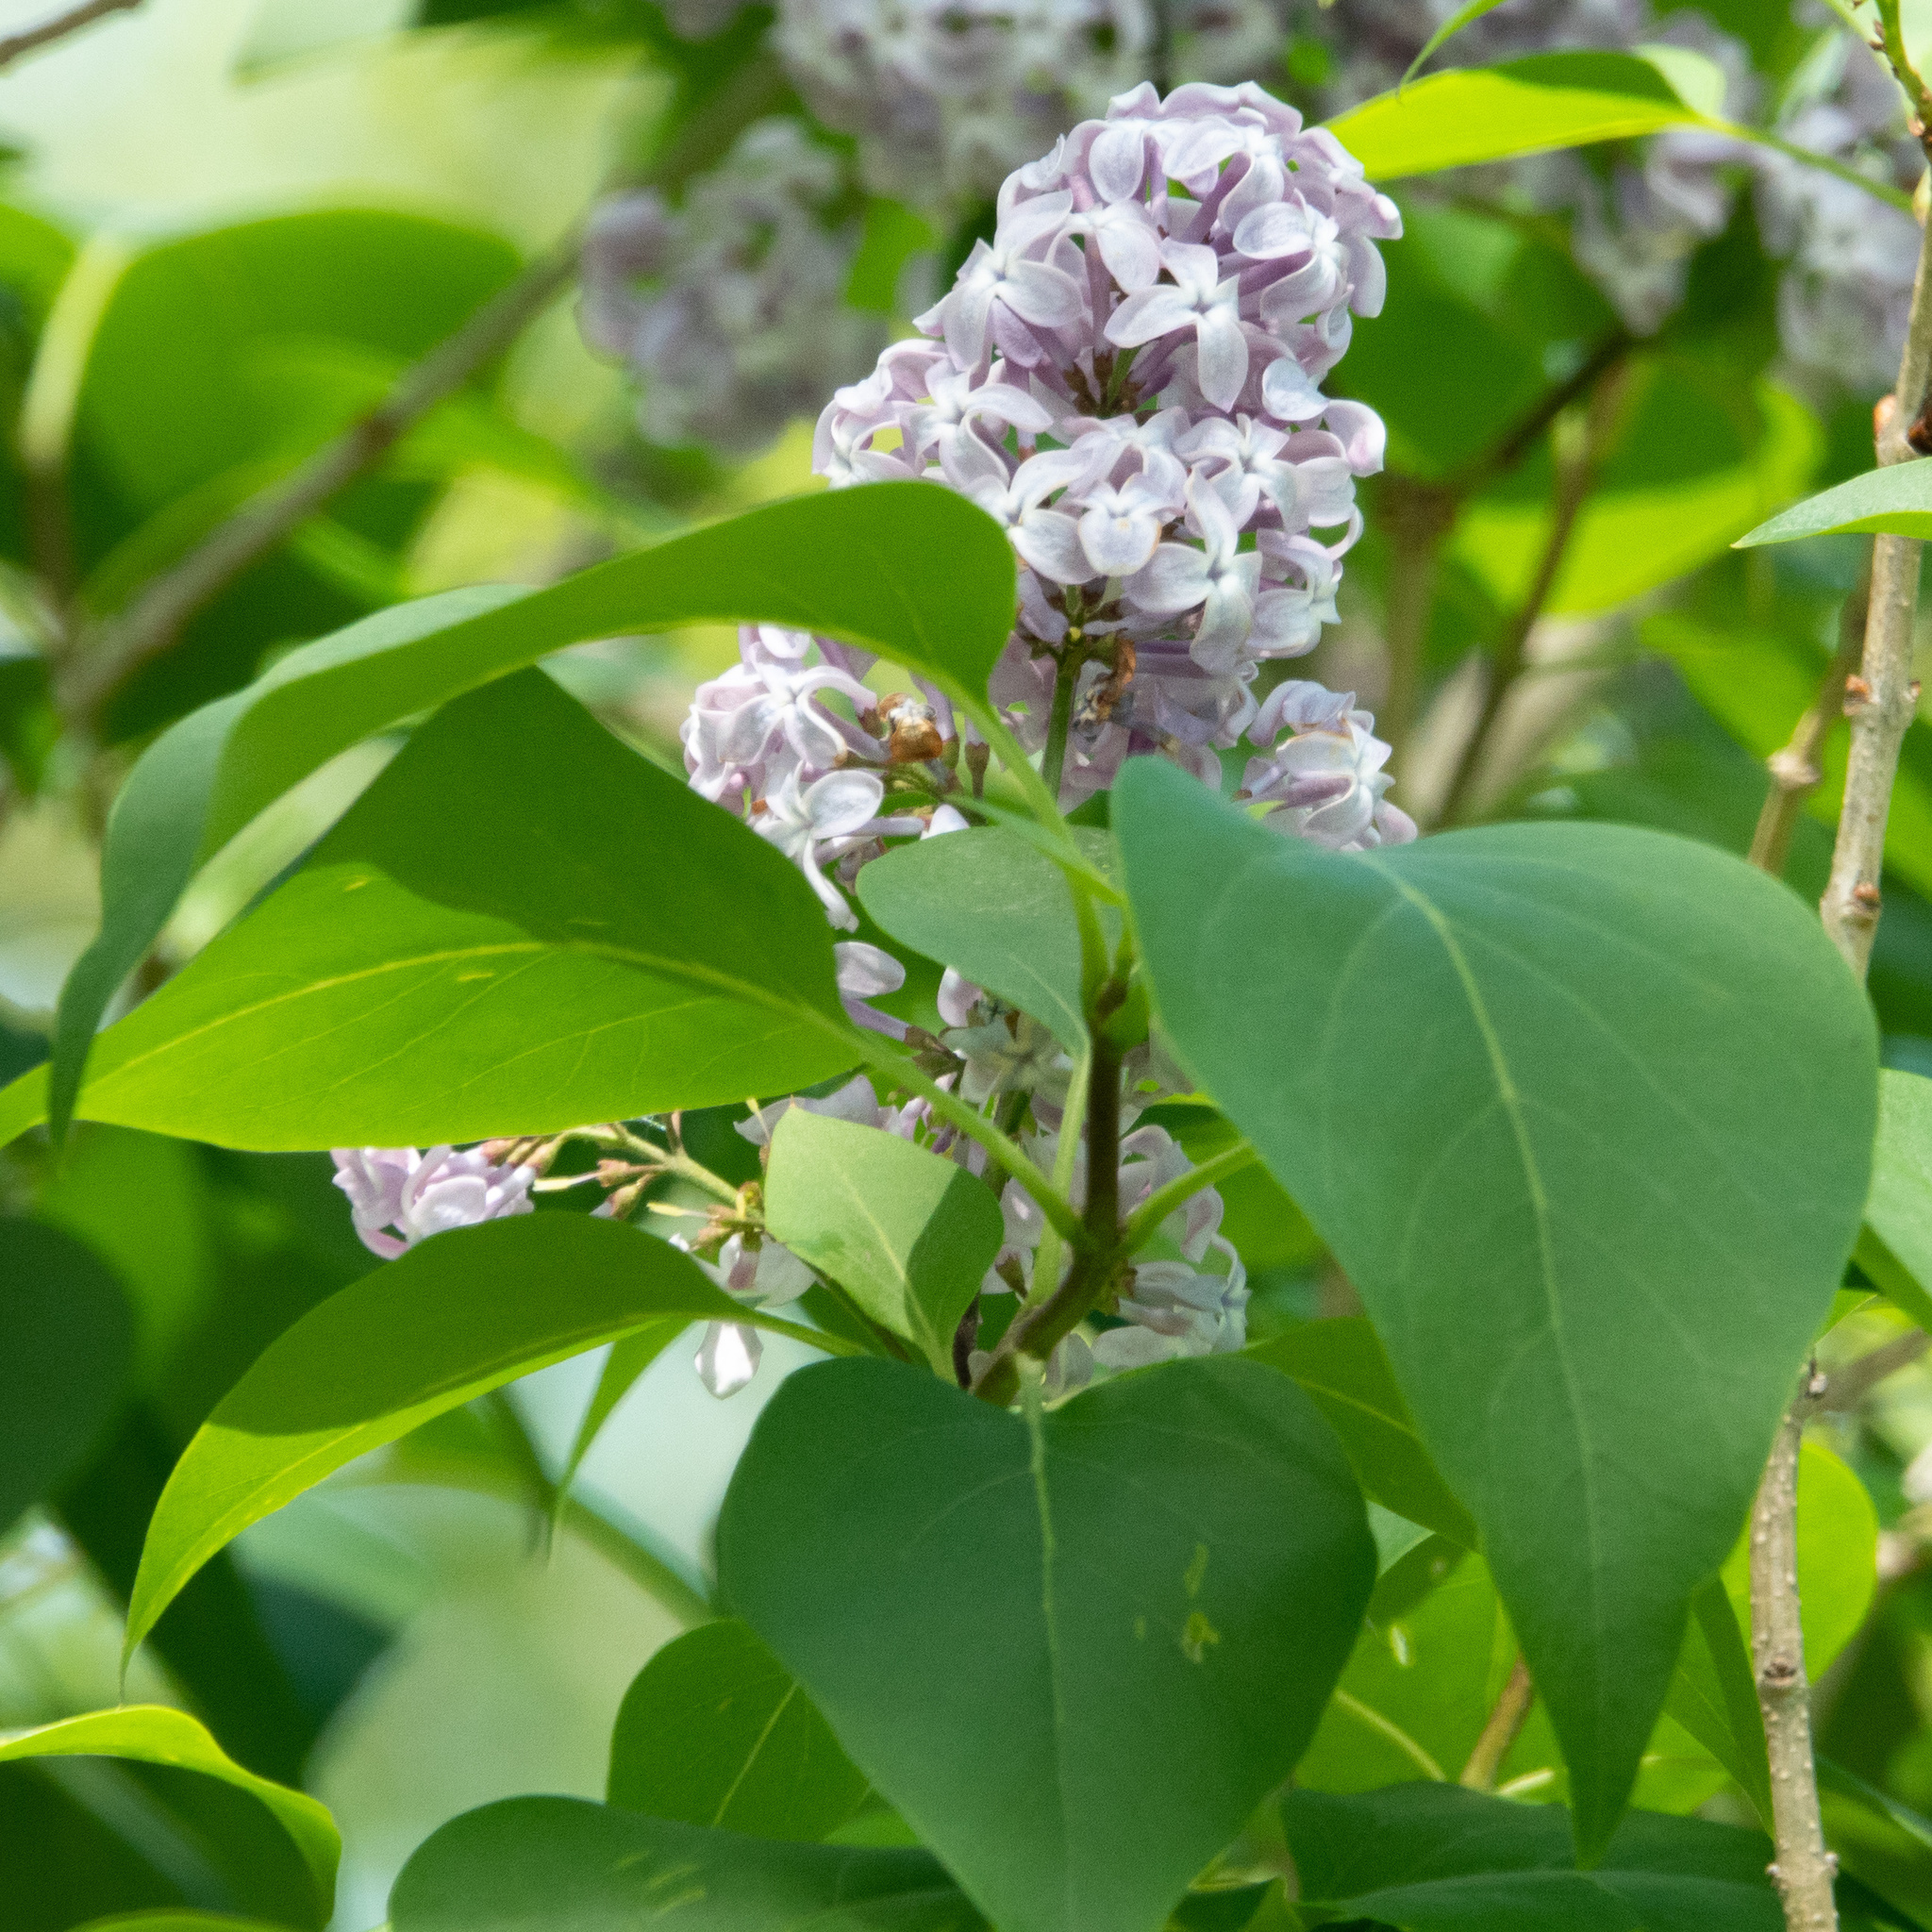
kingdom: Plantae
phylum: Tracheophyta
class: Magnoliopsida
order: Lamiales
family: Oleaceae
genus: Syringa
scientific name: Syringa vulgaris
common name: Common lilac
